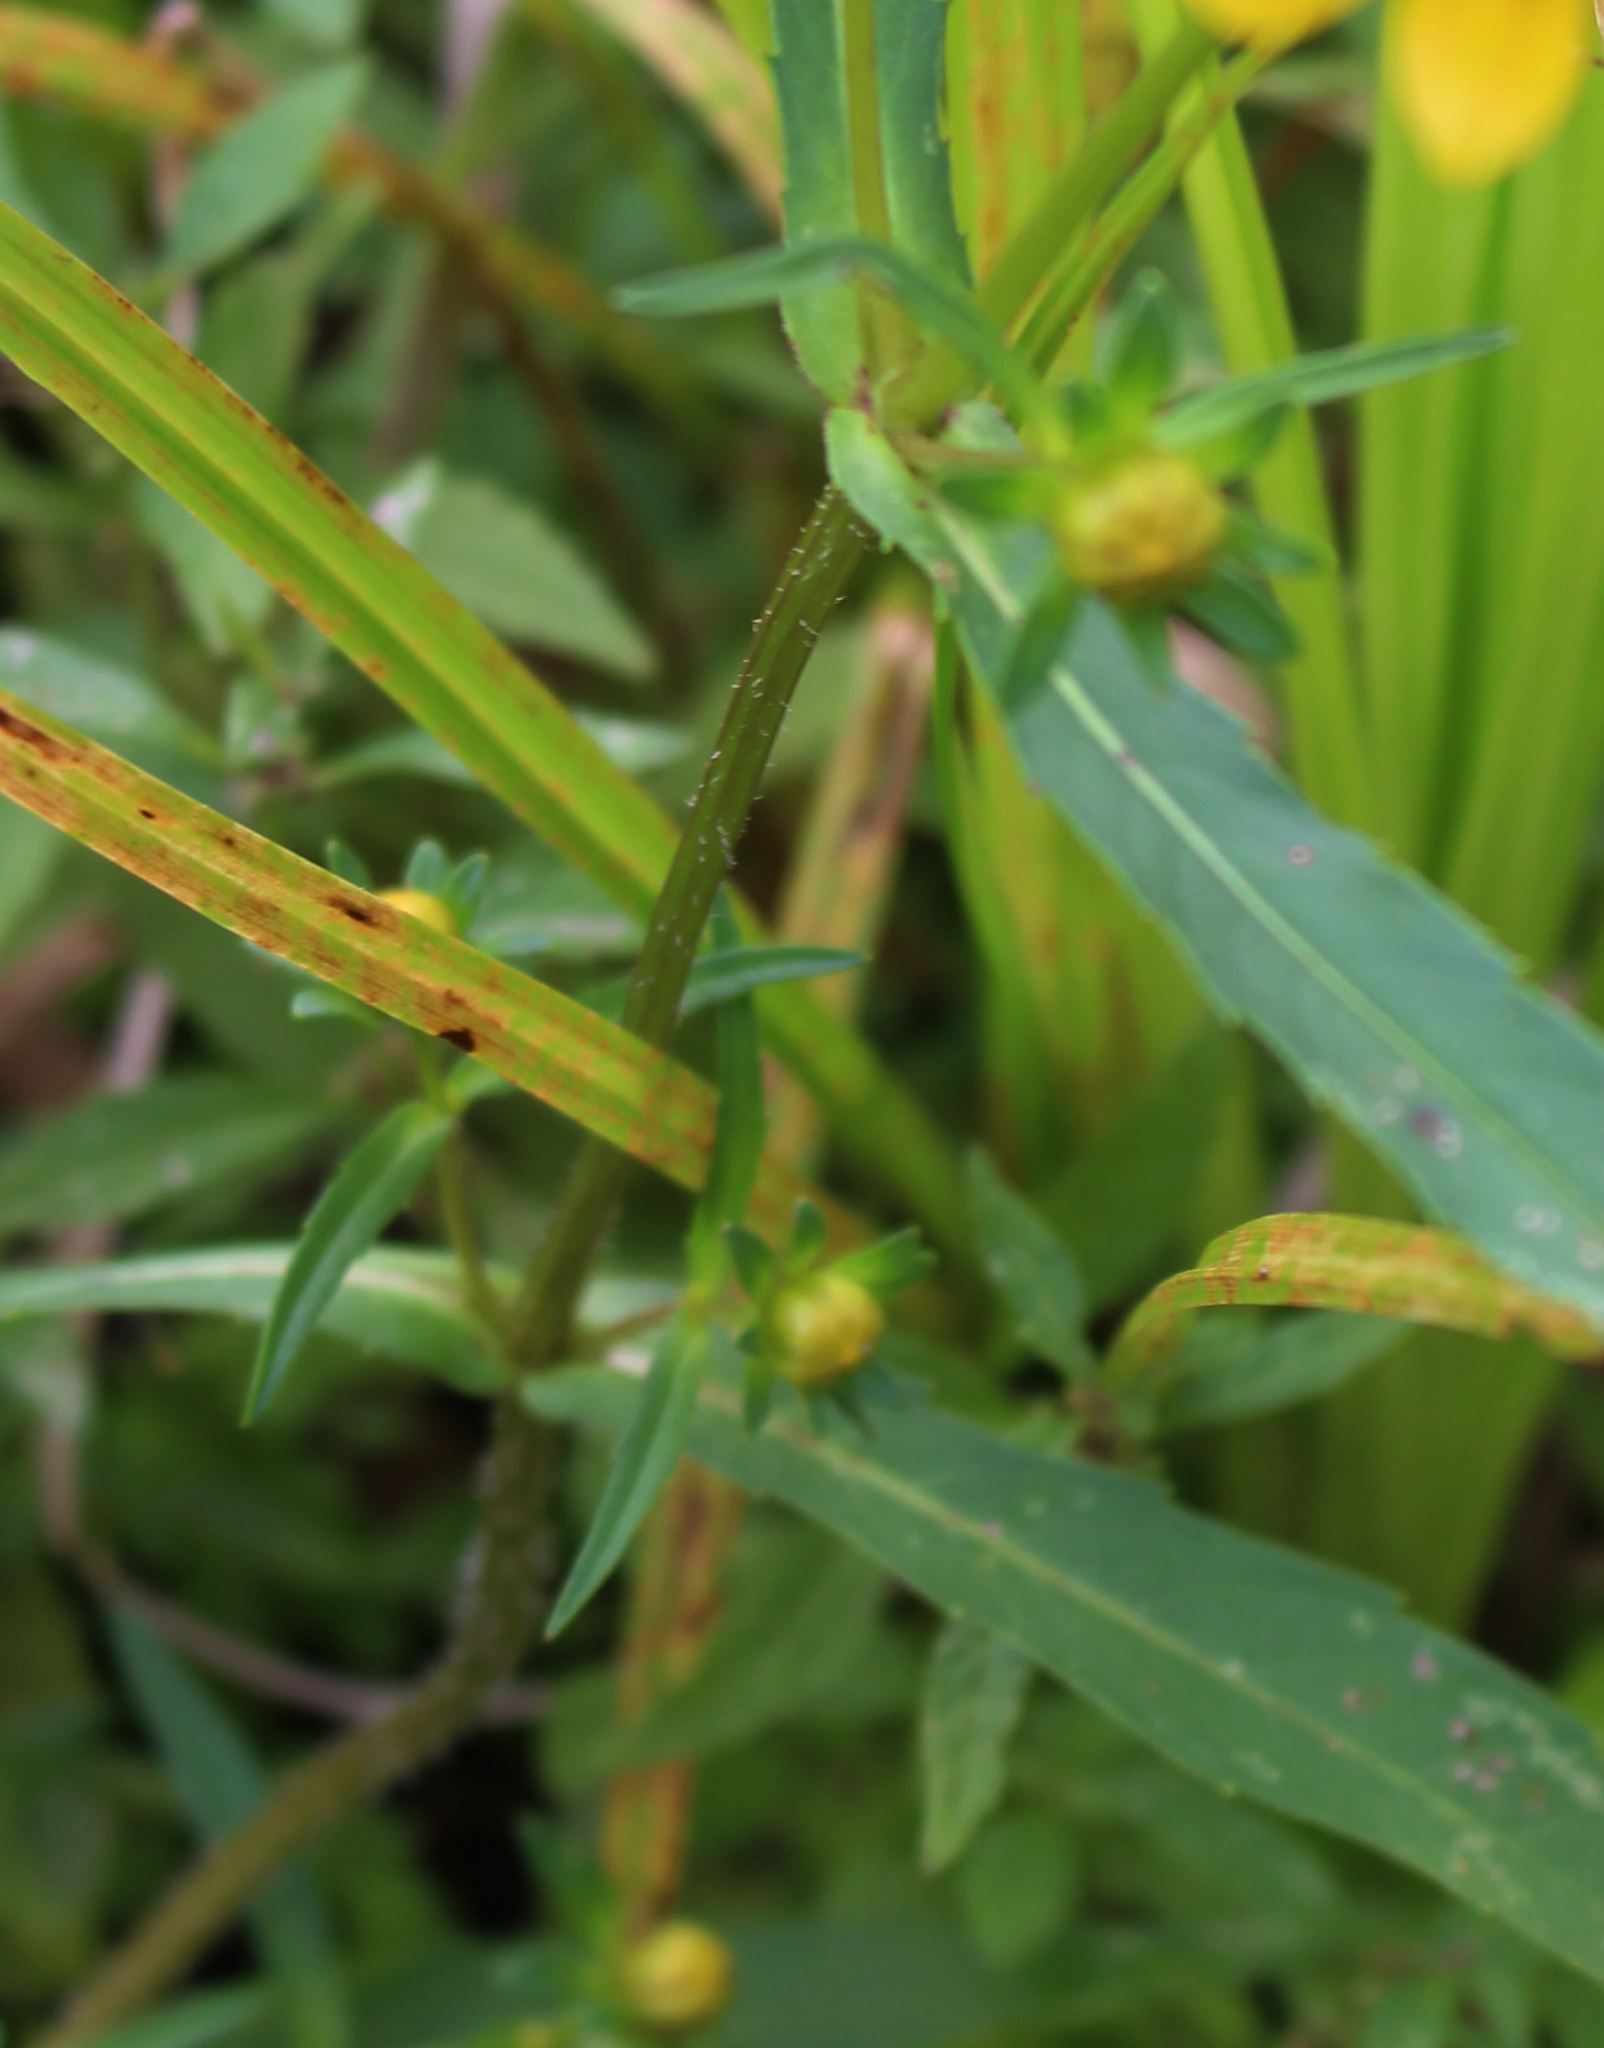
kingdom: Plantae
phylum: Tracheophyta
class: Magnoliopsida
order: Asterales
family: Asteraceae
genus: Bidens
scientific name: Bidens cernua
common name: Nodding bur-marigold
